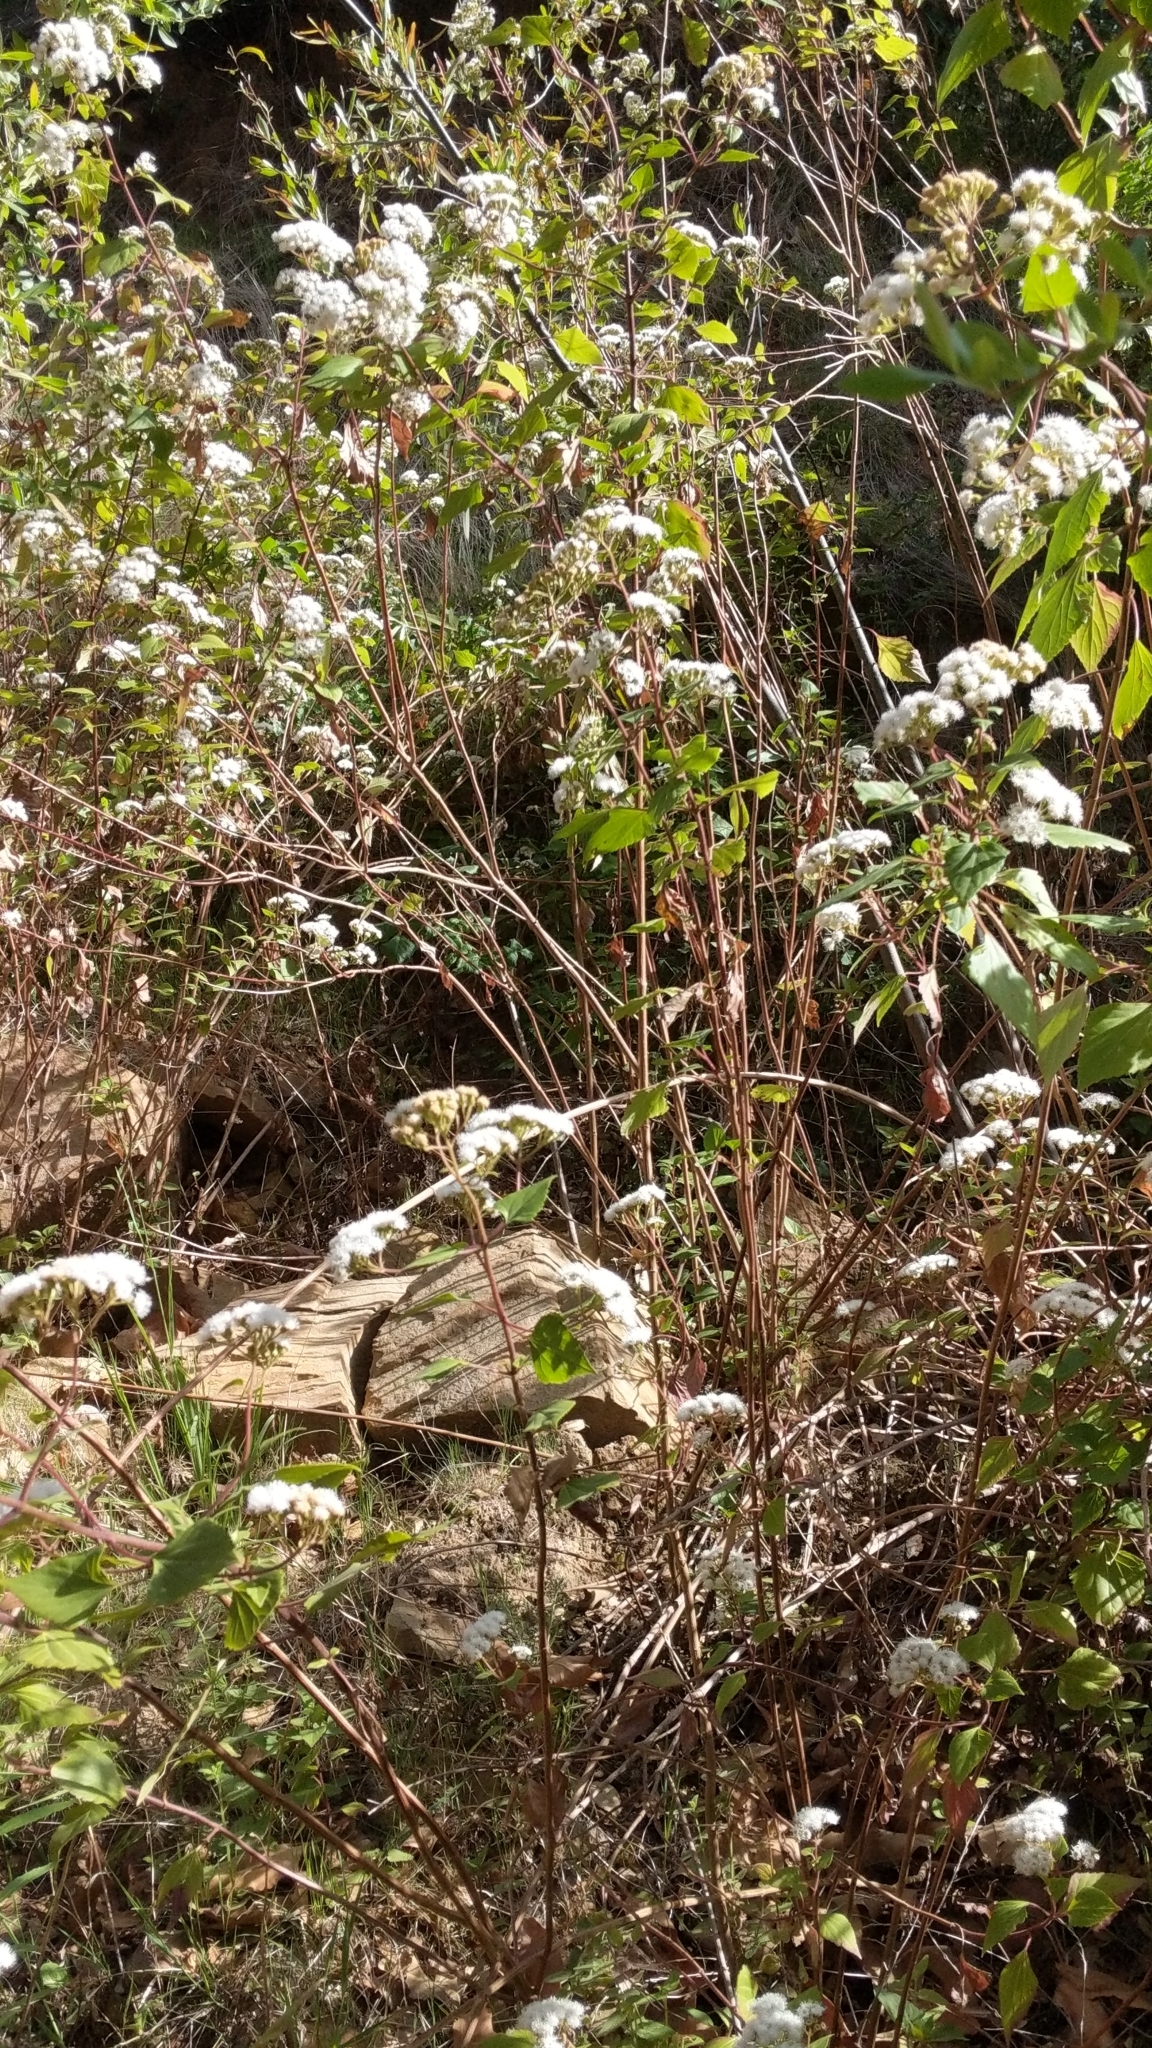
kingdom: Plantae
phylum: Tracheophyta
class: Magnoliopsida
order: Asterales
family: Asteraceae
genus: Ageratina
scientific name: Ageratina adenophora
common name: Sticky snakeroot
